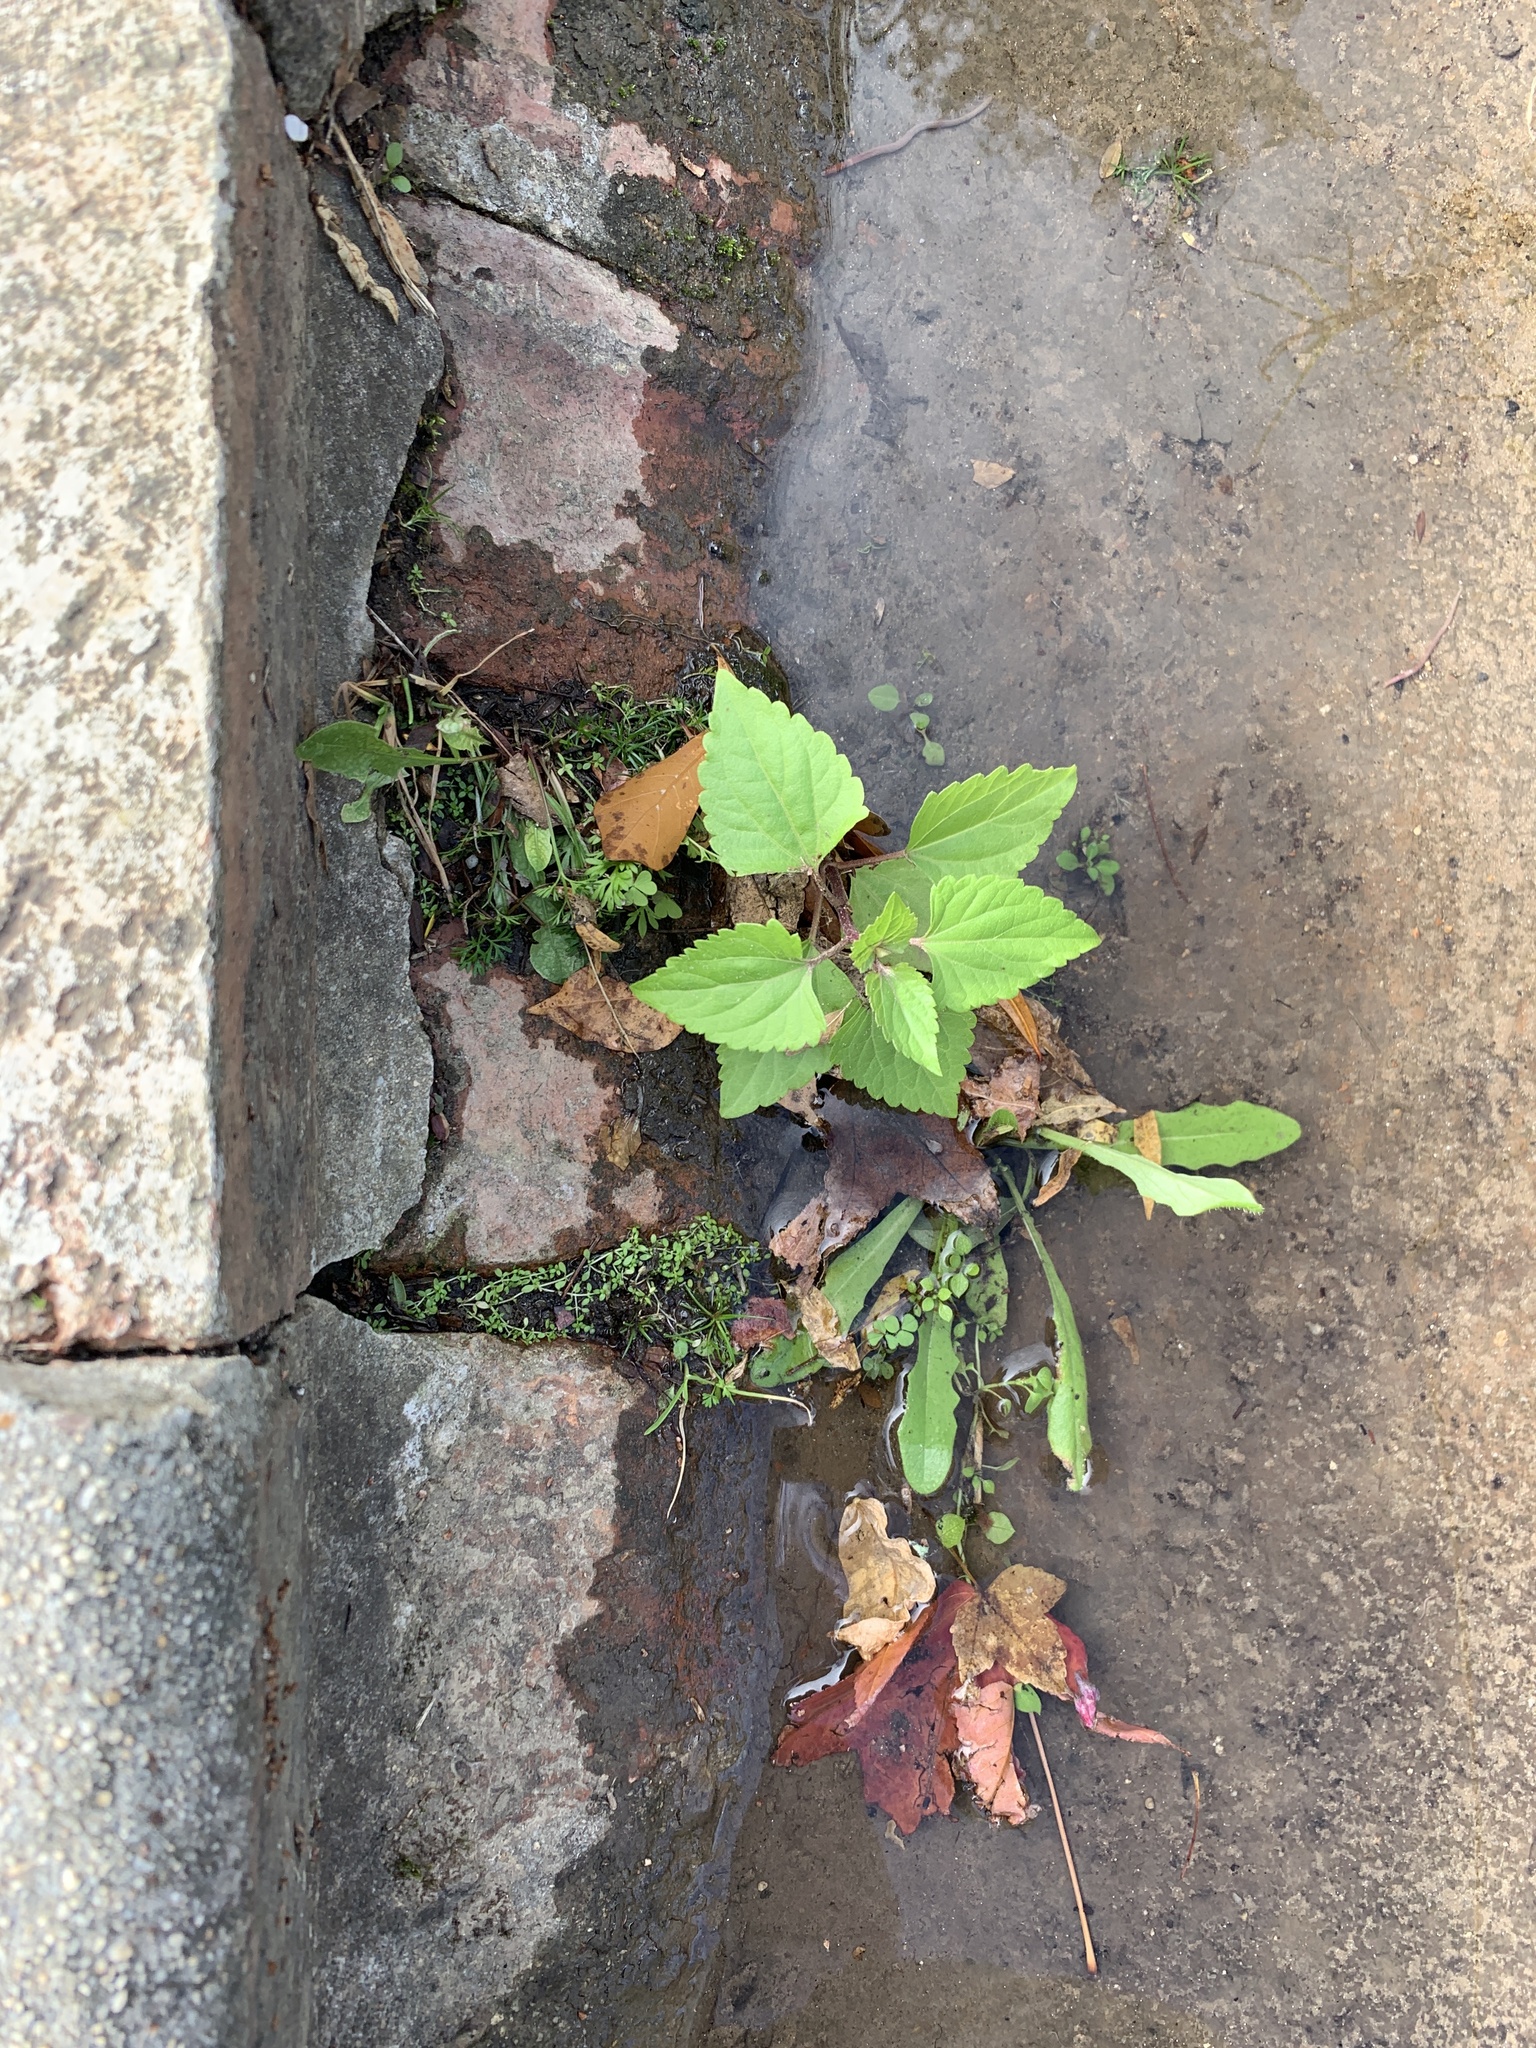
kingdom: Plantae
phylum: Tracheophyta
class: Magnoliopsida
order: Asterales
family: Asteraceae
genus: Ageratina
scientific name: Ageratina adenophora
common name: Sticky snakeroot
